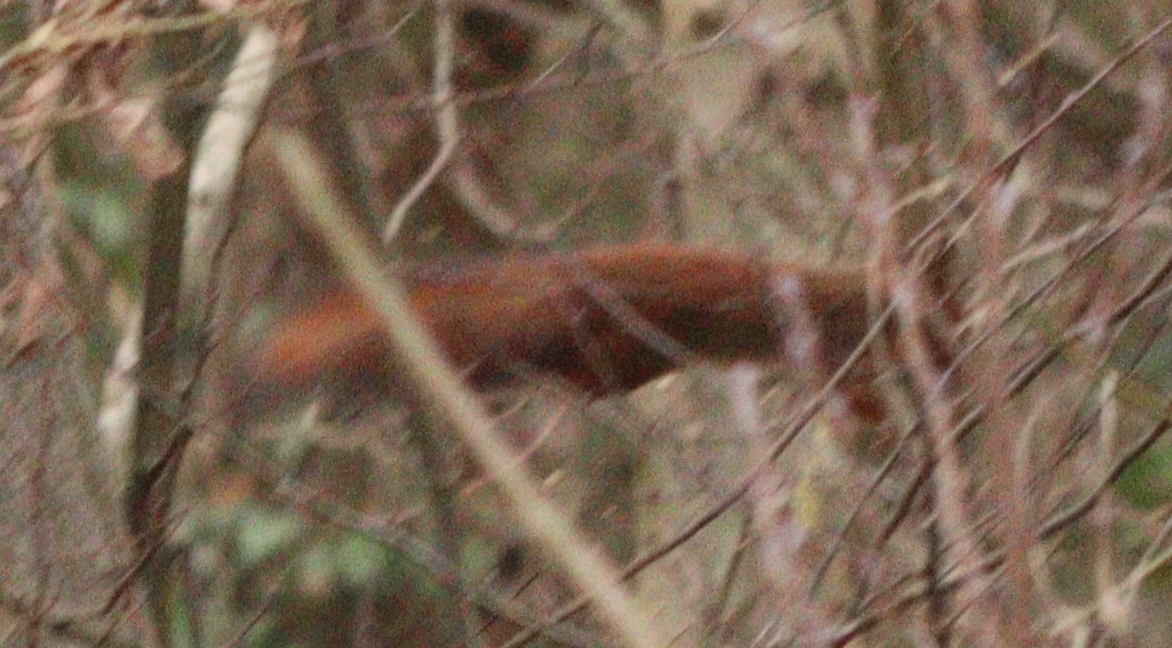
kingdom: Animalia
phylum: Chordata
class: Mammalia
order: Rodentia
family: Sciuridae
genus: Sciurus
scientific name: Sciurus vulgaris
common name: Eurasian red squirrel
